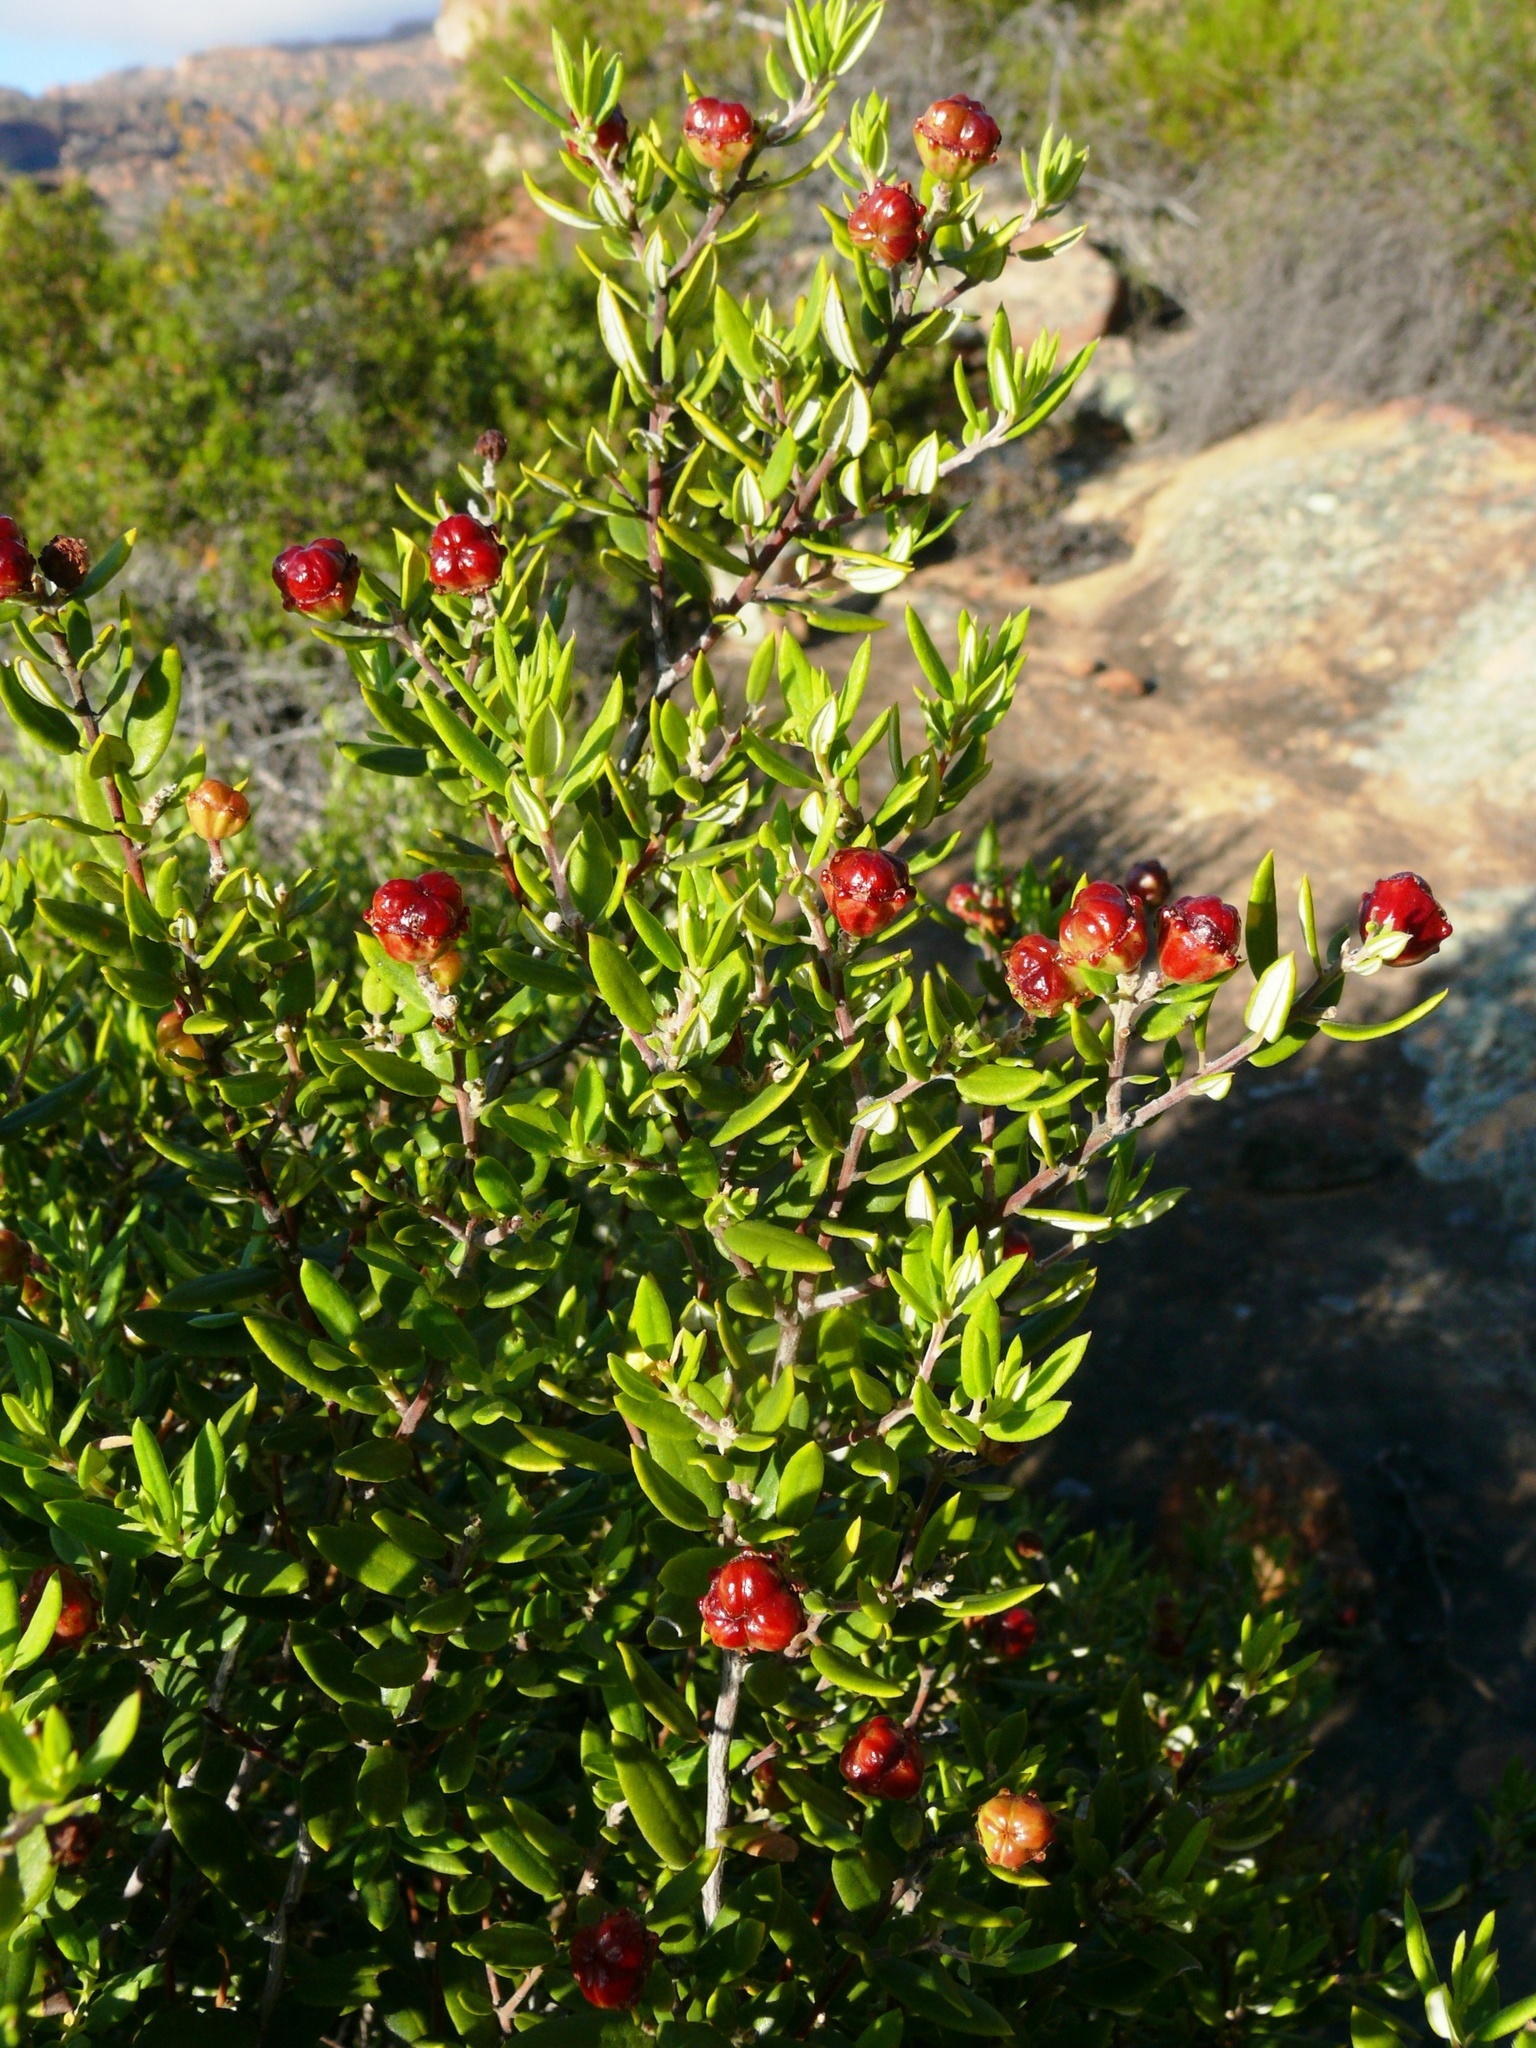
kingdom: Plantae
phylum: Tracheophyta
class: Magnoliopsida
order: Rosales
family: Rhamnaceae
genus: Phylica
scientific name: Phylica oleifolia
